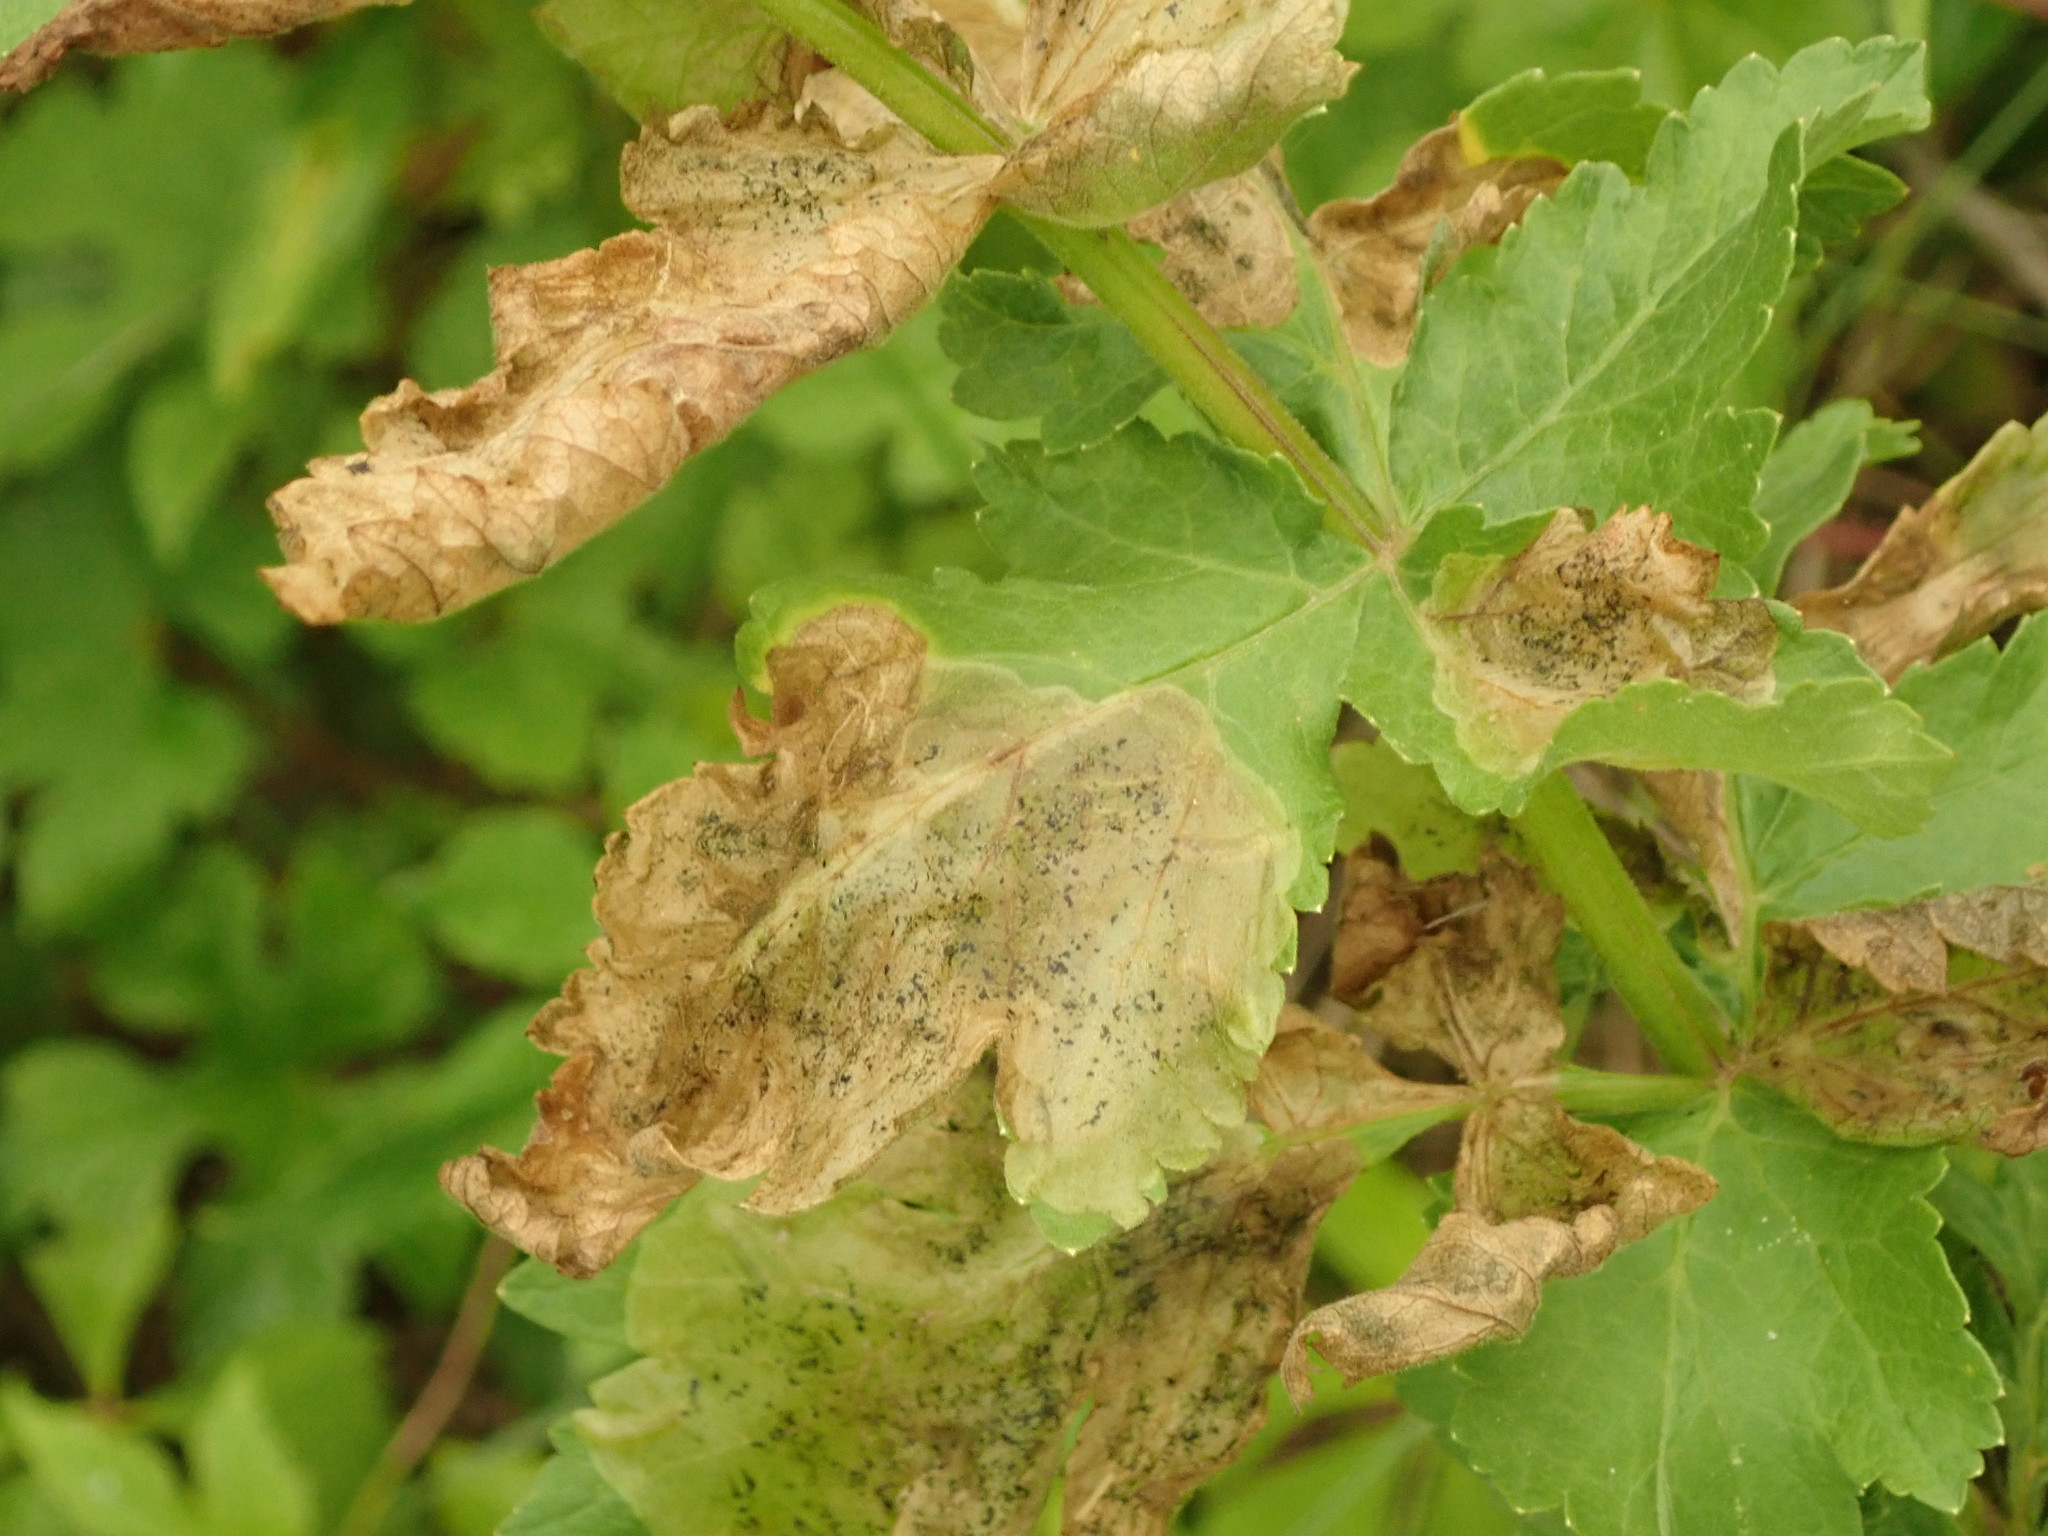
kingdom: Animalia
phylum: Arthropoda
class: Insecta
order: Diptera
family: Tephritidae
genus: Euleia
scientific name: Euleia fratria
